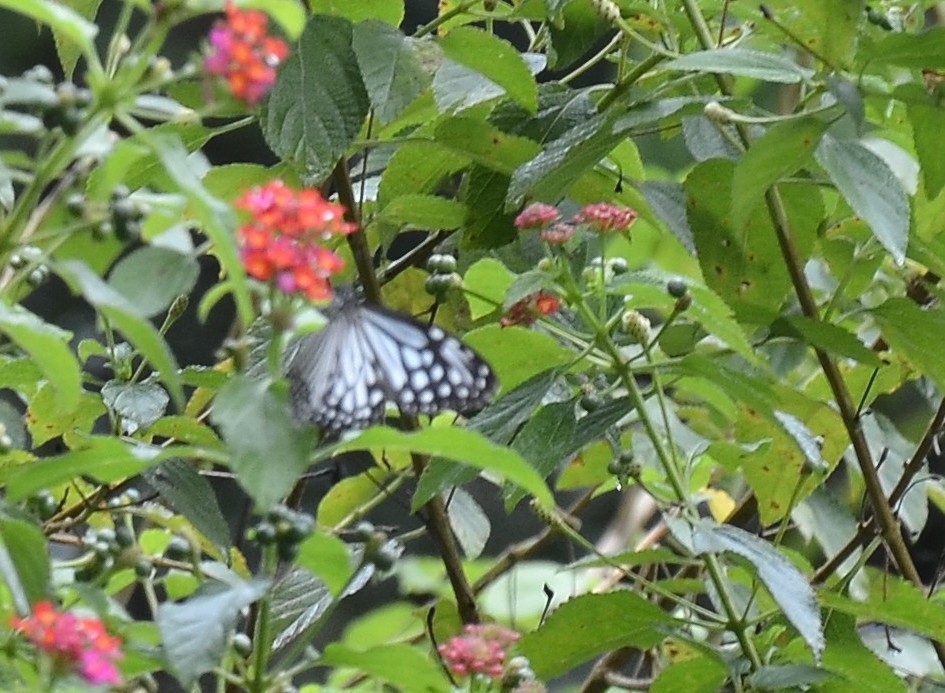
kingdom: Animalia
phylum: Arthropoda
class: Insecta
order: Lepidoptera
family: Nymphalidae
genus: Parantica
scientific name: Parantica aglea
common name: Glassy tiger
